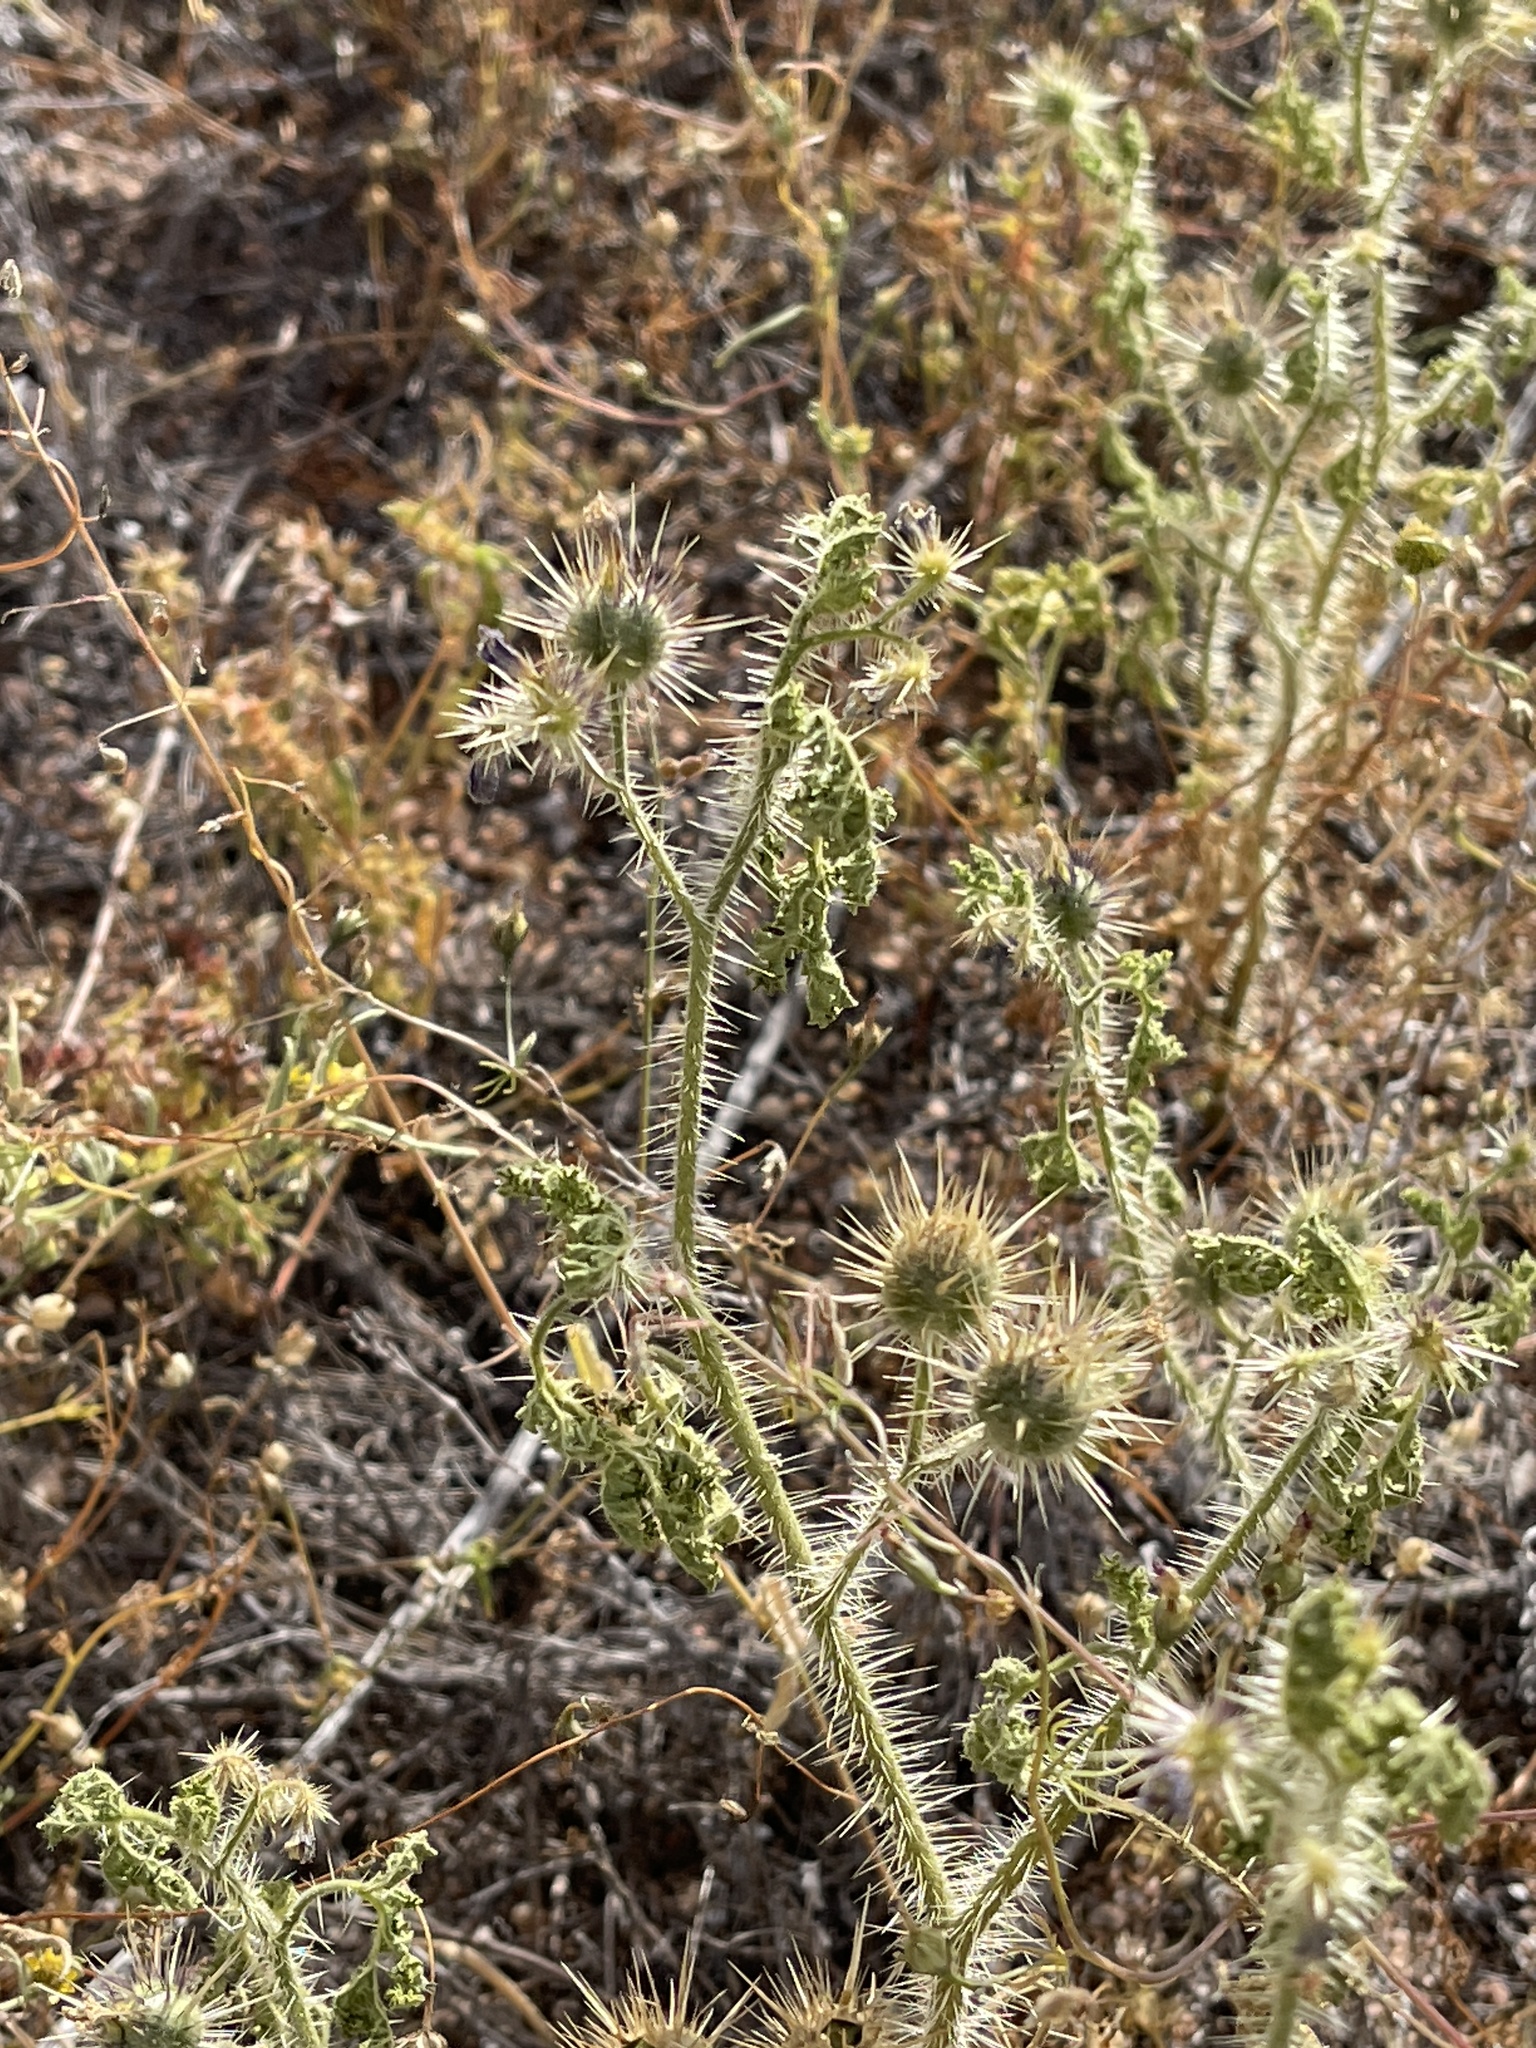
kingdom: Plantae
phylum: Tracheophyta
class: Magnoliopsida
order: Solanales
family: Solanaceae
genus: Solanum
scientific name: Solanum angustifolium
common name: Buffalobur nightshade
